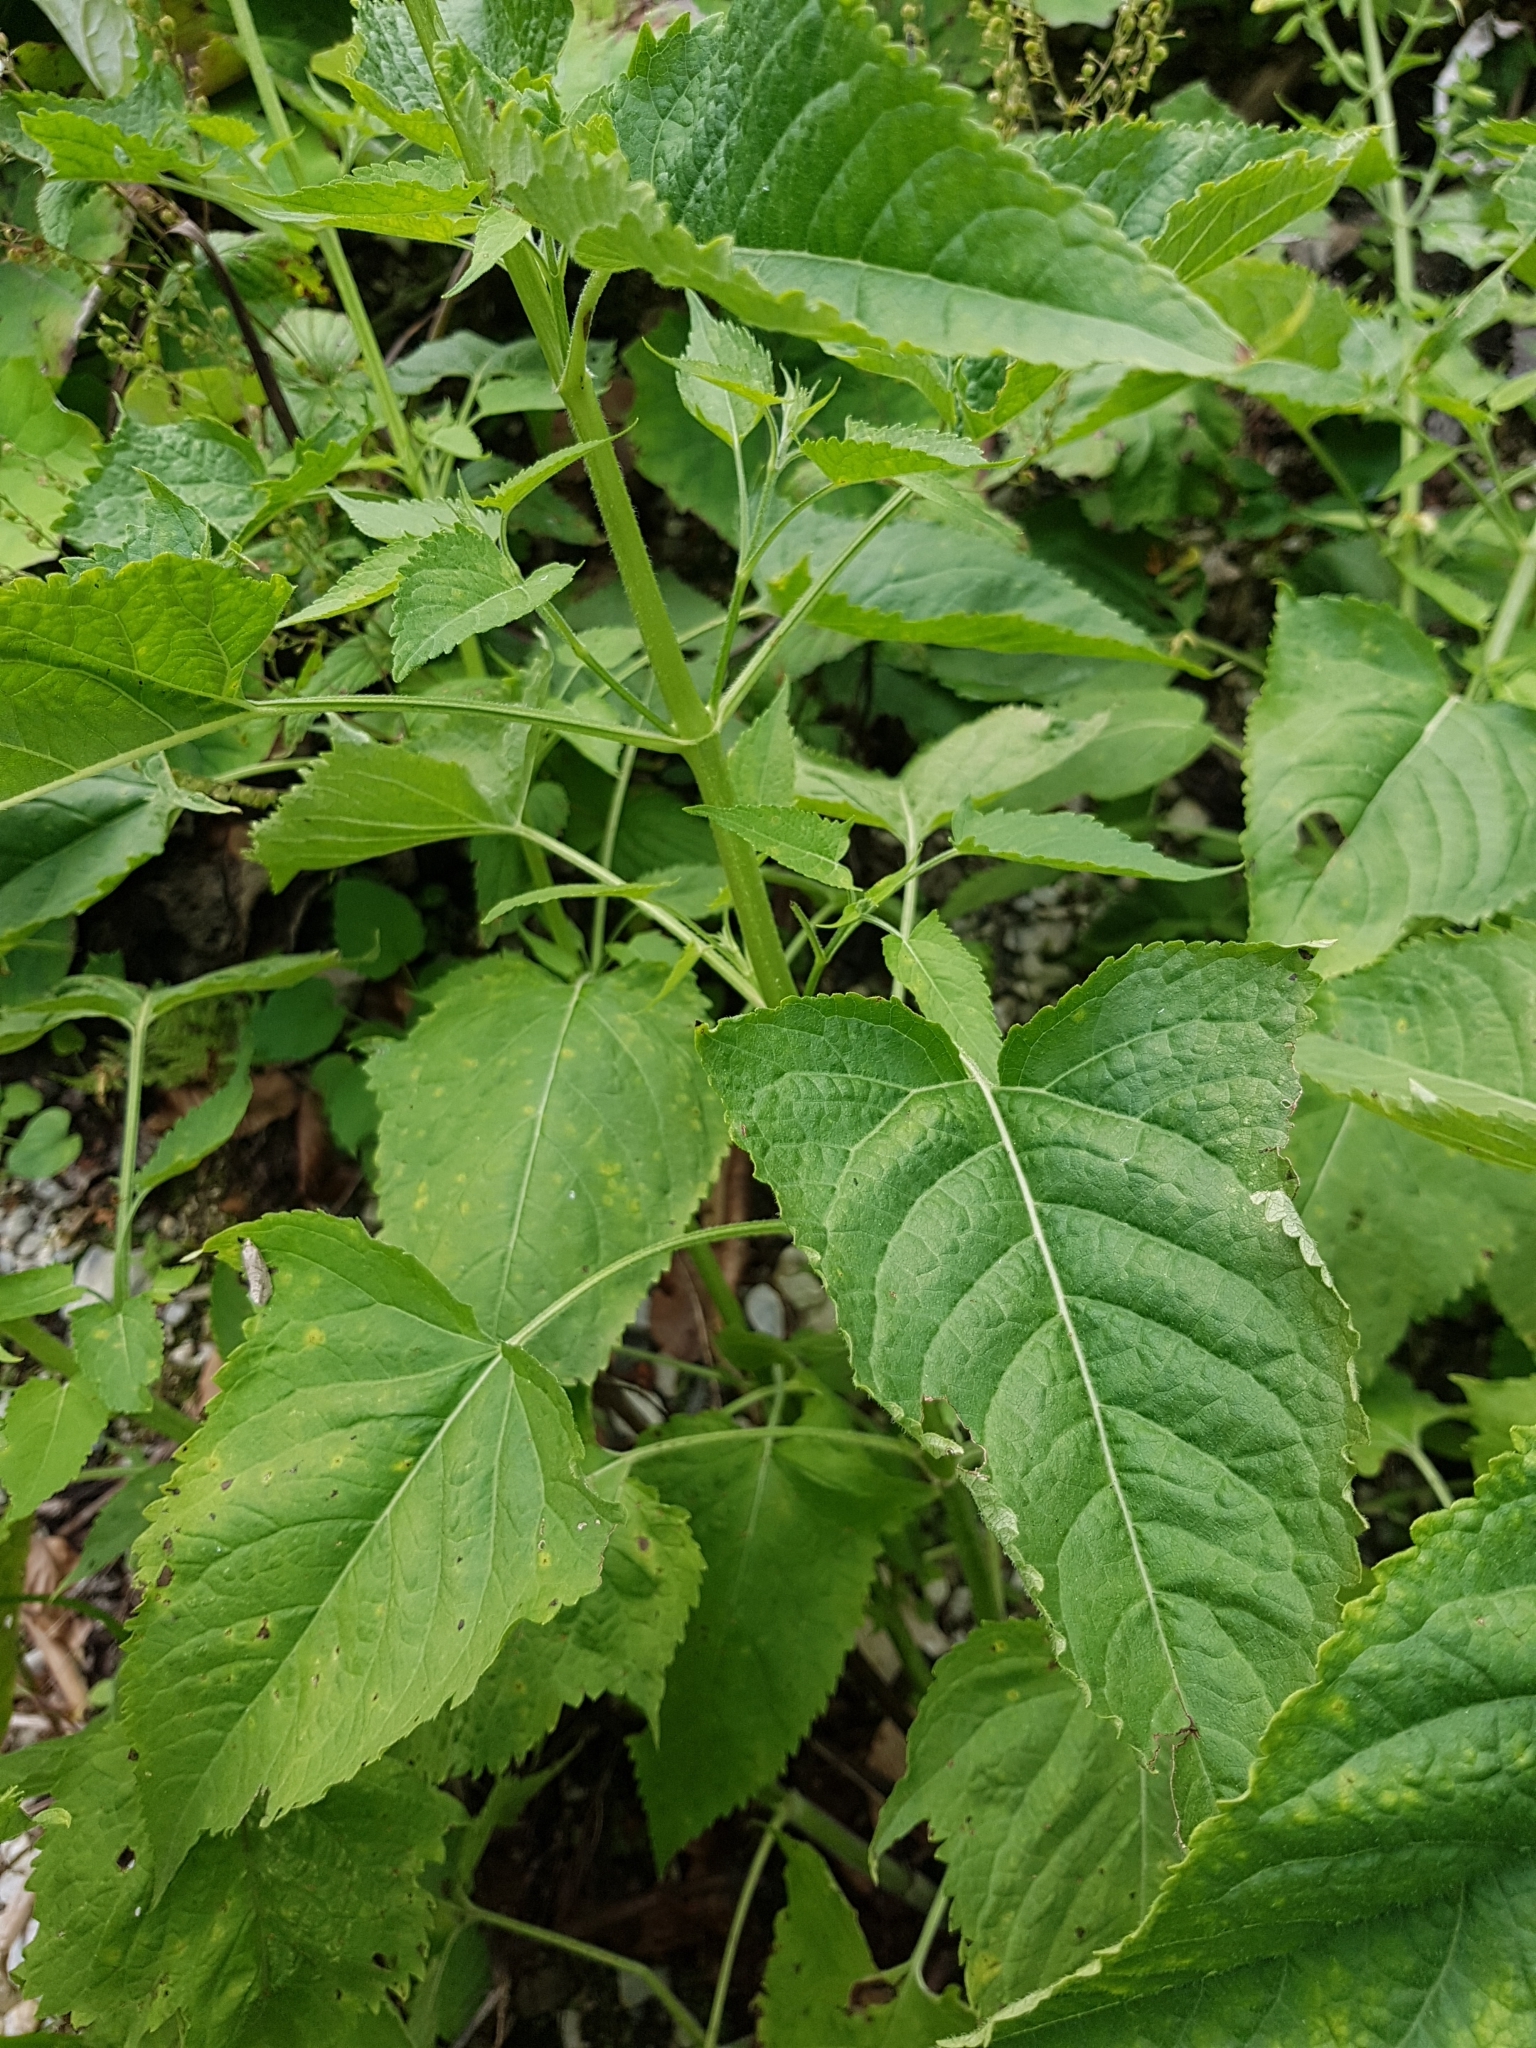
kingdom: Plantae
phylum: Tracheophyta
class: Magnoliopsida
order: Lamiales
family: Lamiaceae
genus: Salvia
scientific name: Salvia glutinosa
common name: Sticky clary
